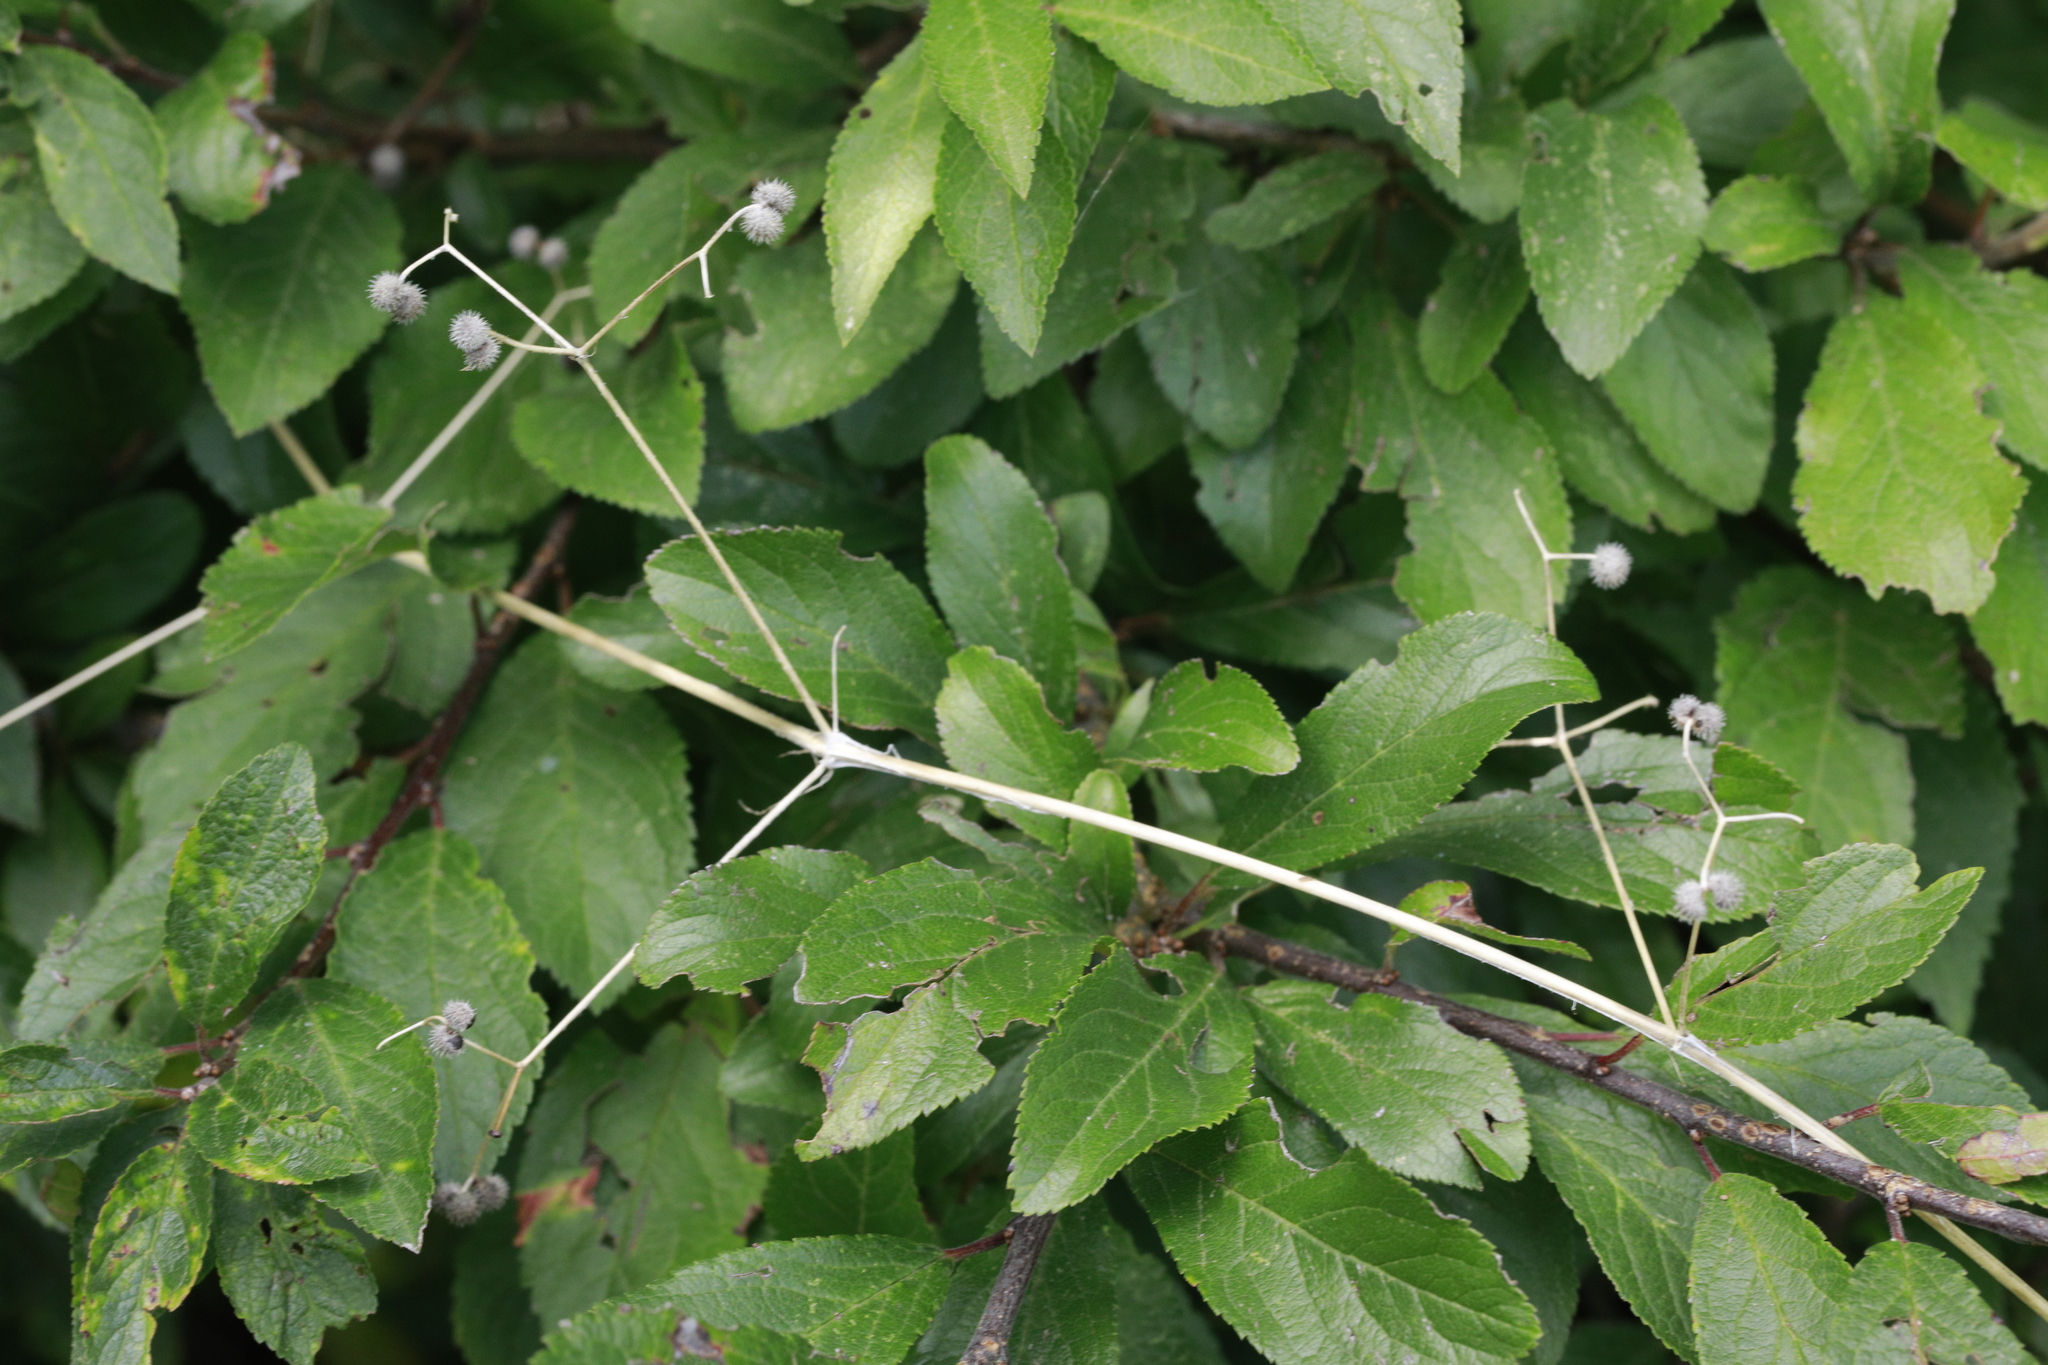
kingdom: Plantae
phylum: Tracheophyta
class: Magnoliopsida
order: Gentianales
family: Rubiaceae
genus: Galium
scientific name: Galium aparine
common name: Cleavers
